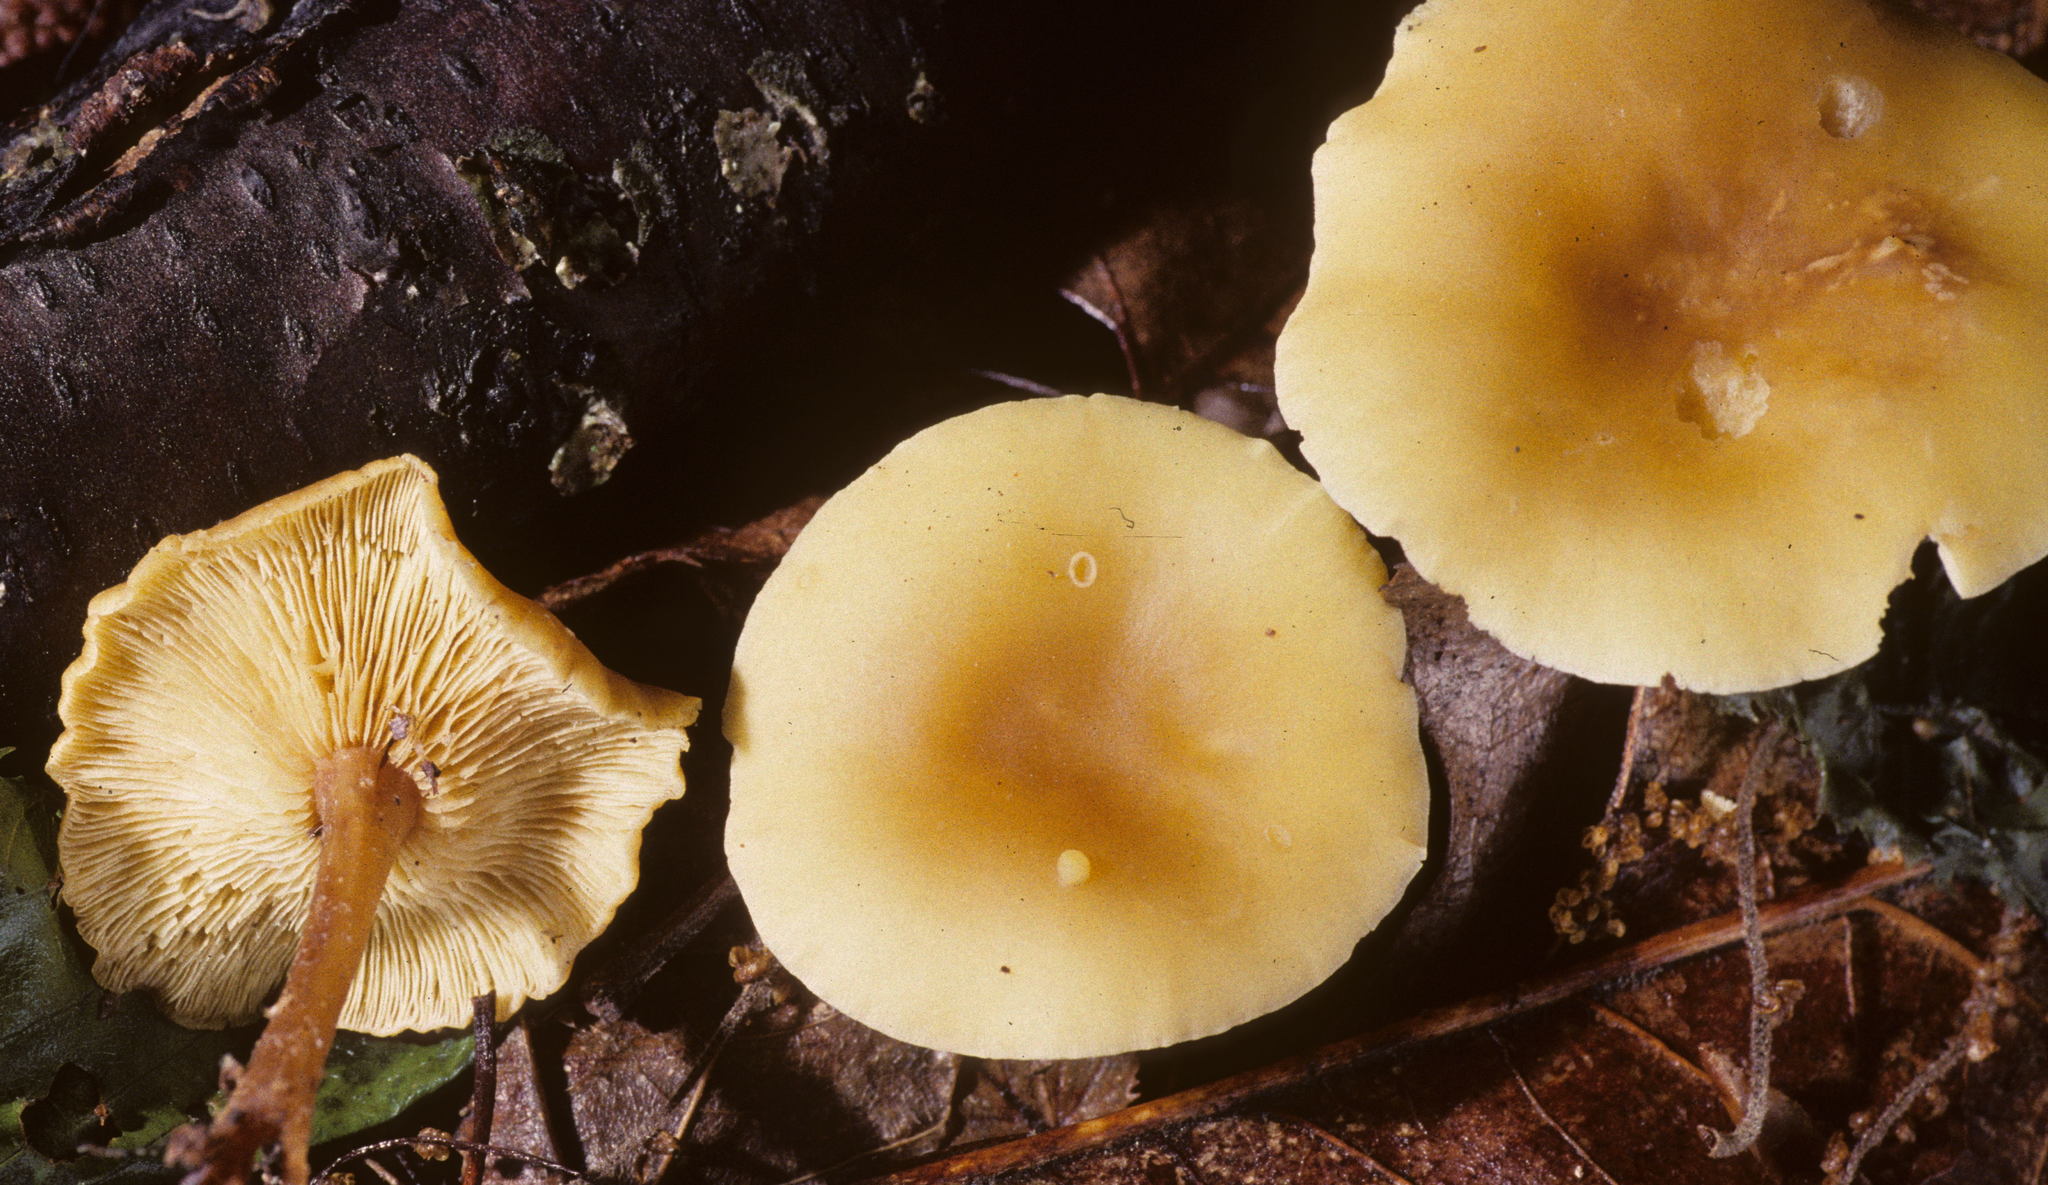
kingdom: Fungi
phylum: Basidiomycota
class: Agaricomycetes
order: Agaricales
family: Omphalotaceae
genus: Gymnopus
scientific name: Gymnopus aquosus
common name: Watery toughshank
